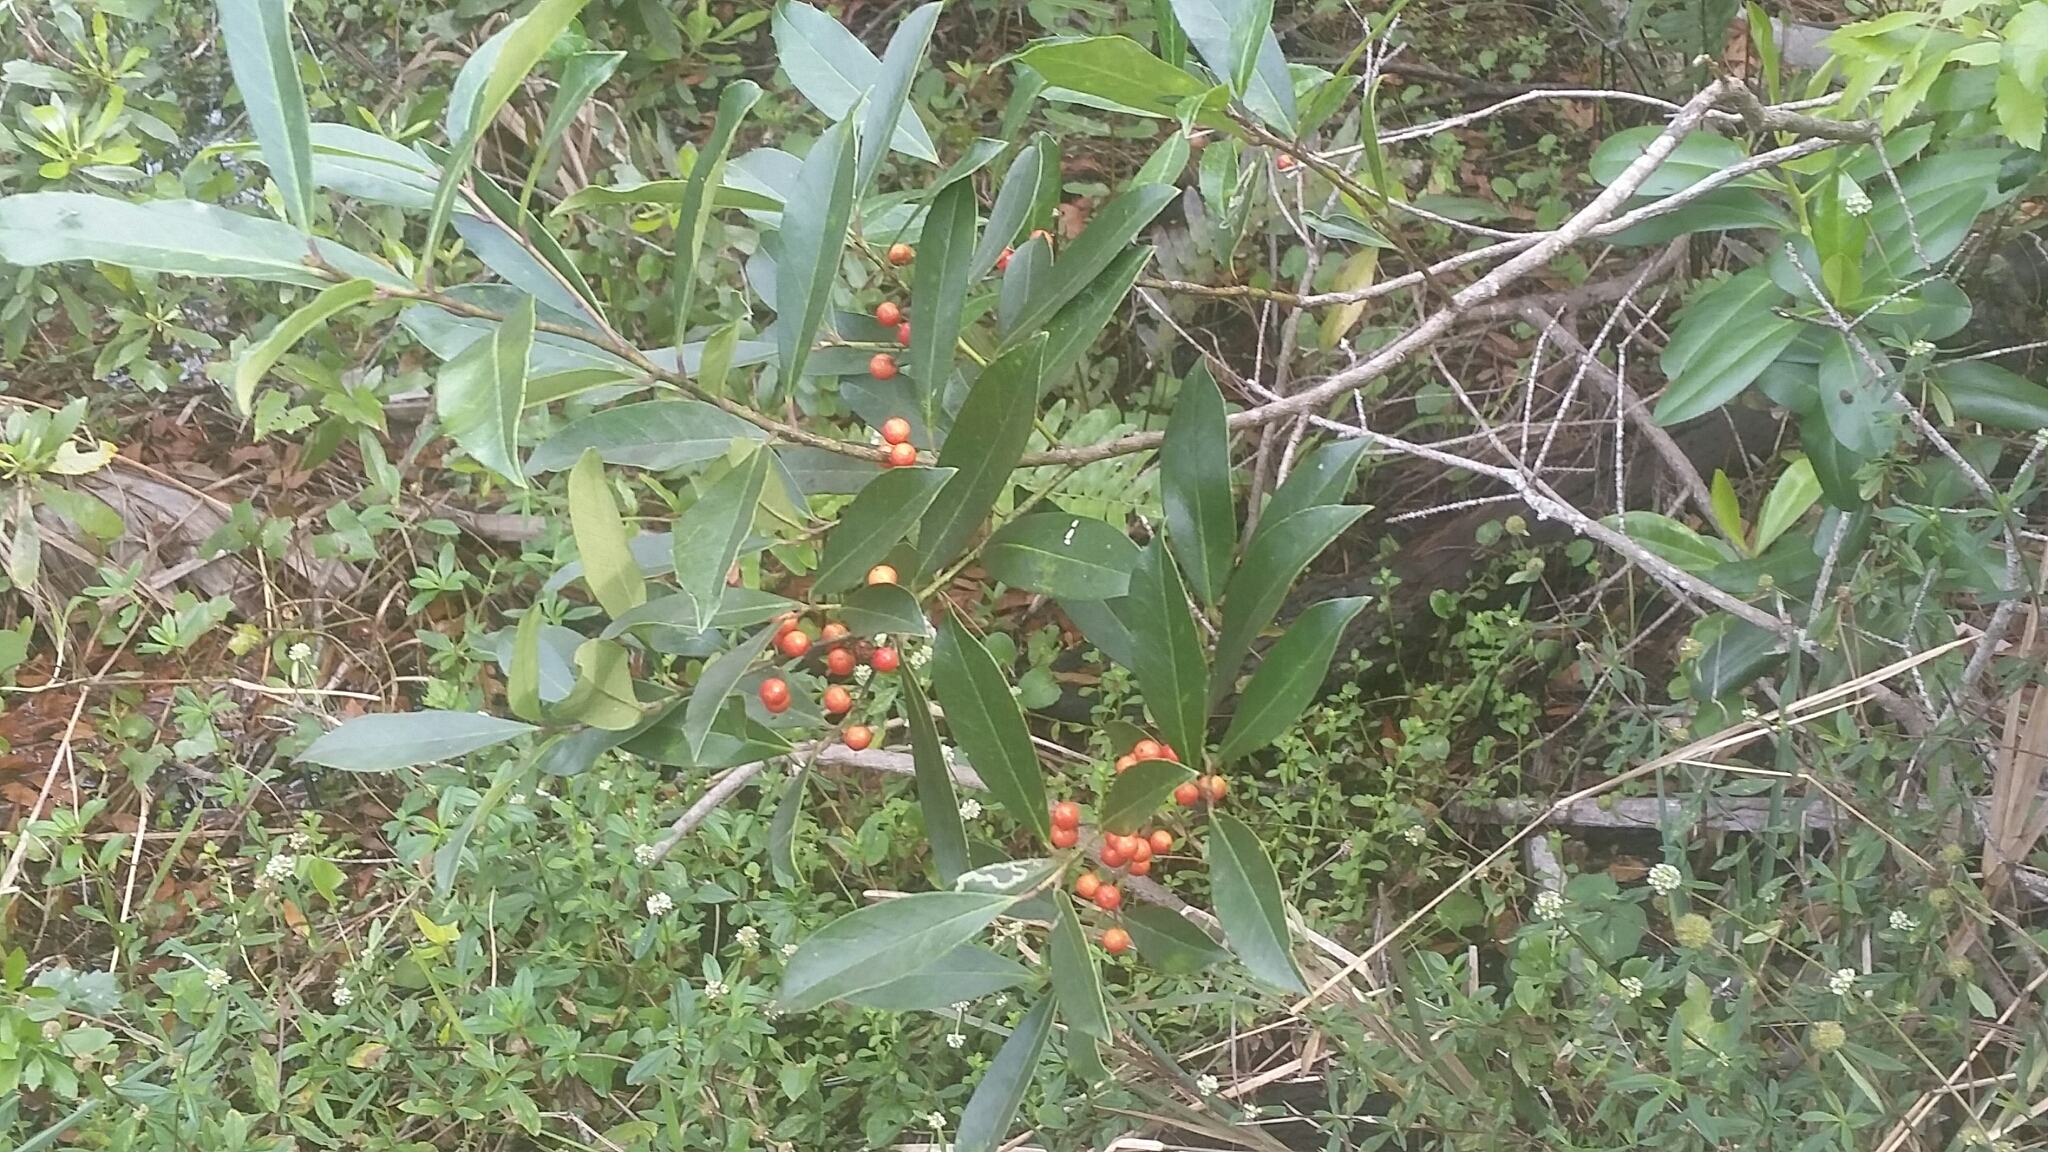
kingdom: Plantae
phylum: Tracheophyta
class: Magnoliopsida
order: Aquifoliales
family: Aquifoliaceae
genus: Ilex
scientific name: Ilex cassine
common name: Dahoon
